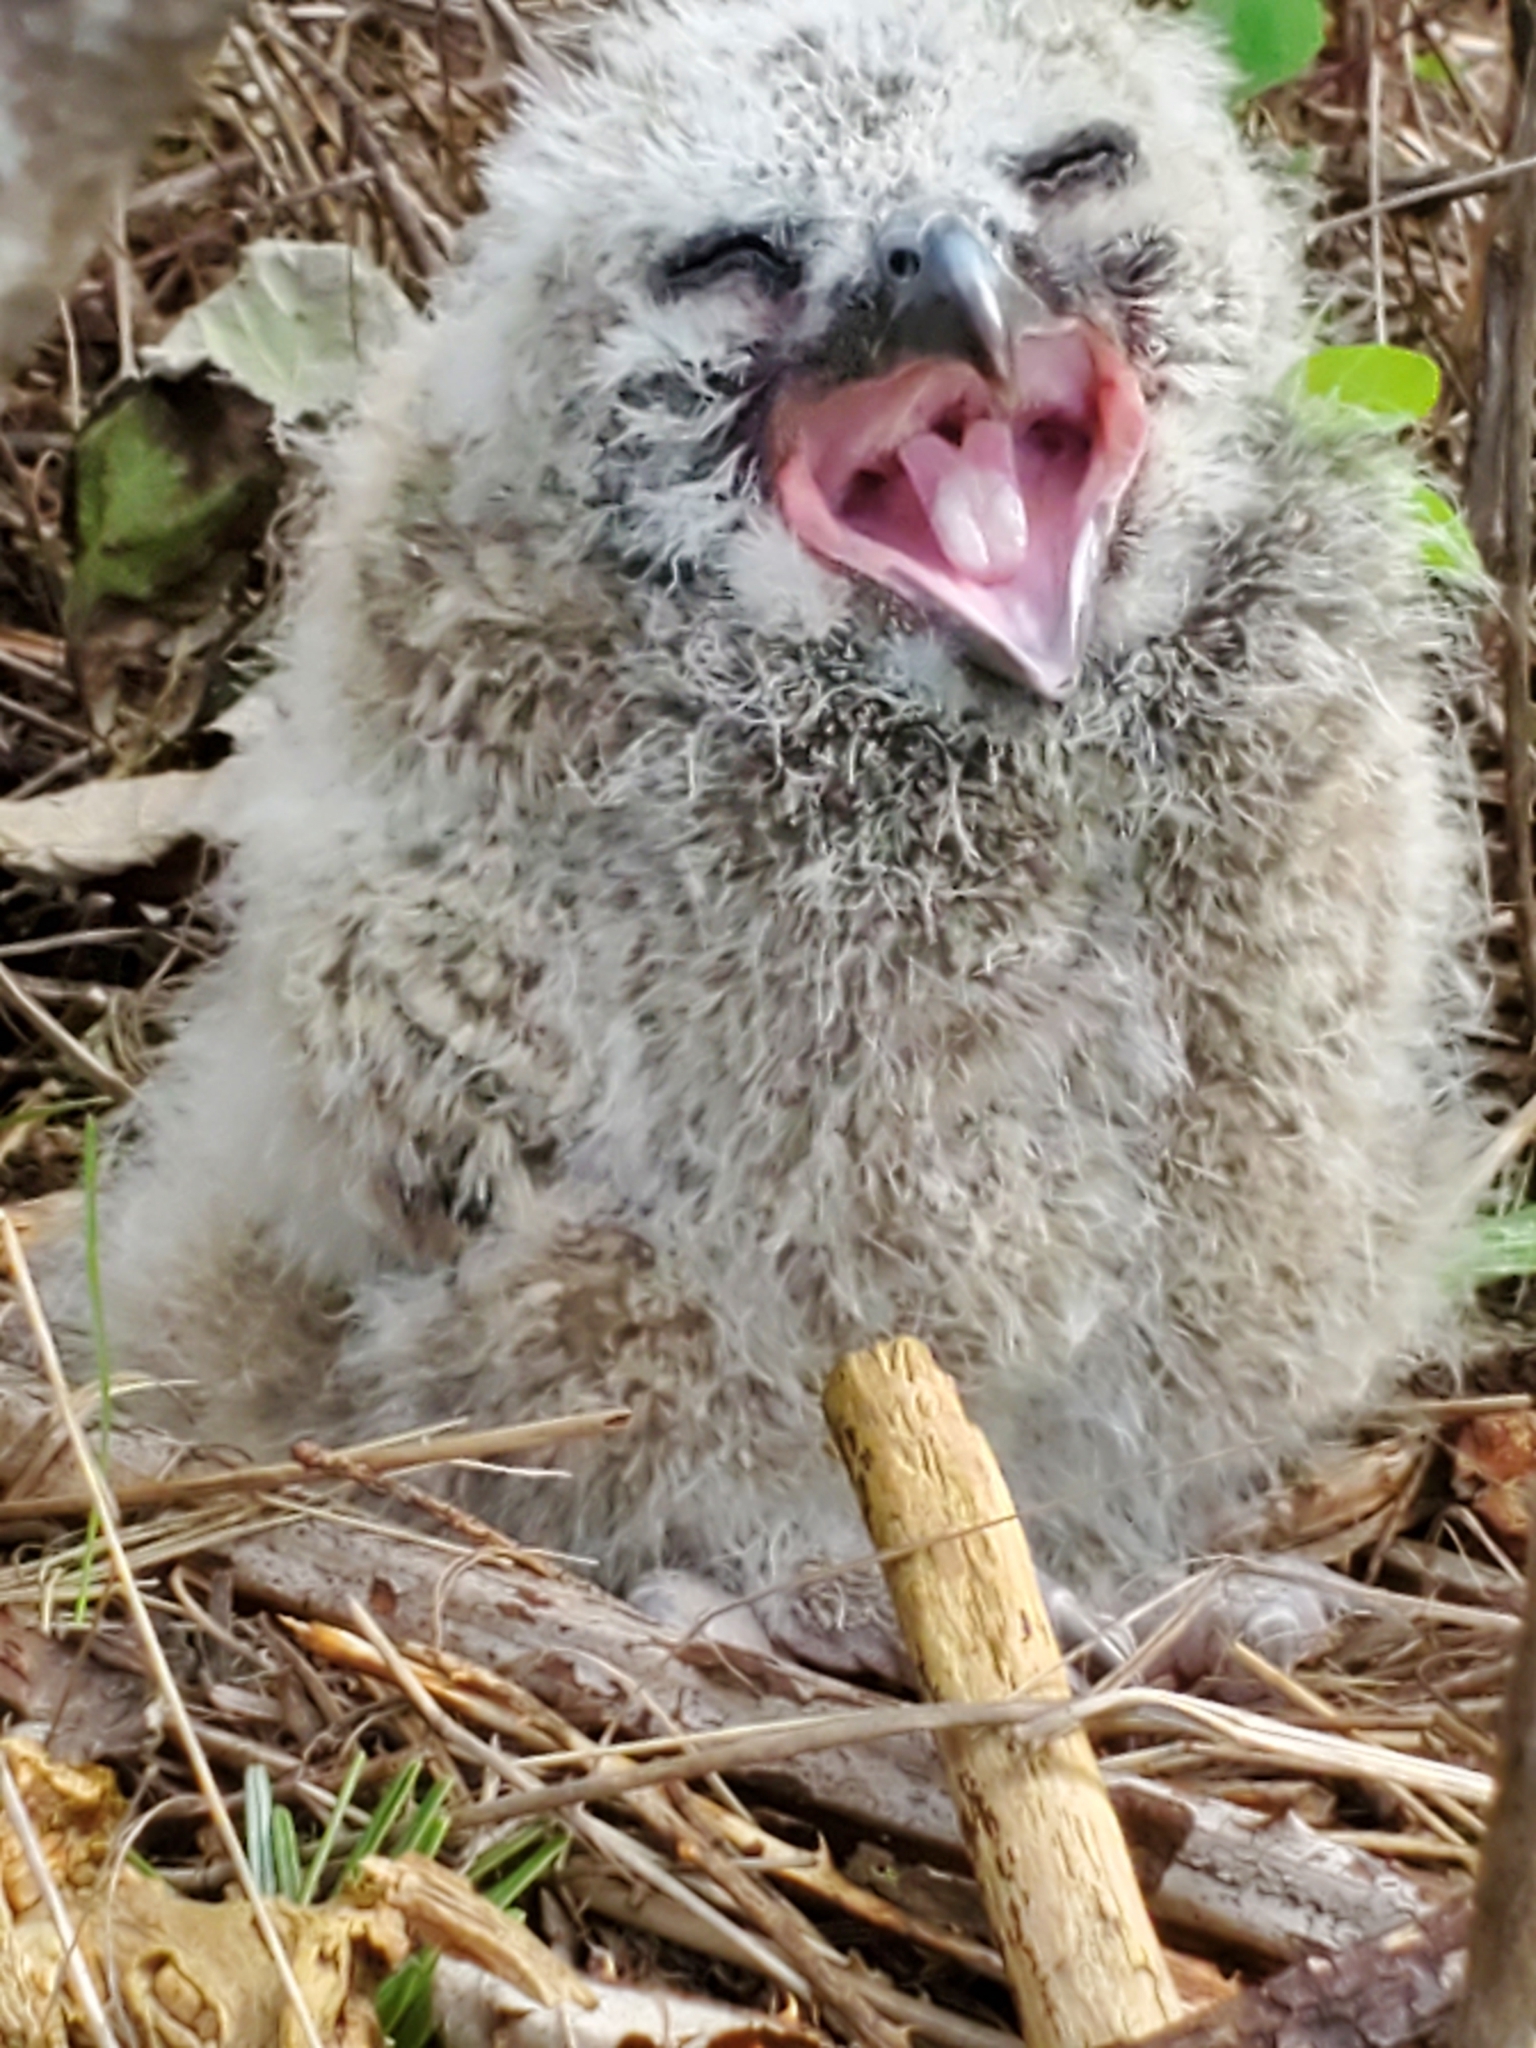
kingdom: Animalia
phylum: Chordata
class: Aves
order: Strigiformes
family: Strigidae
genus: Bubo
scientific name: Bubo virginianus
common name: Great horned owl
